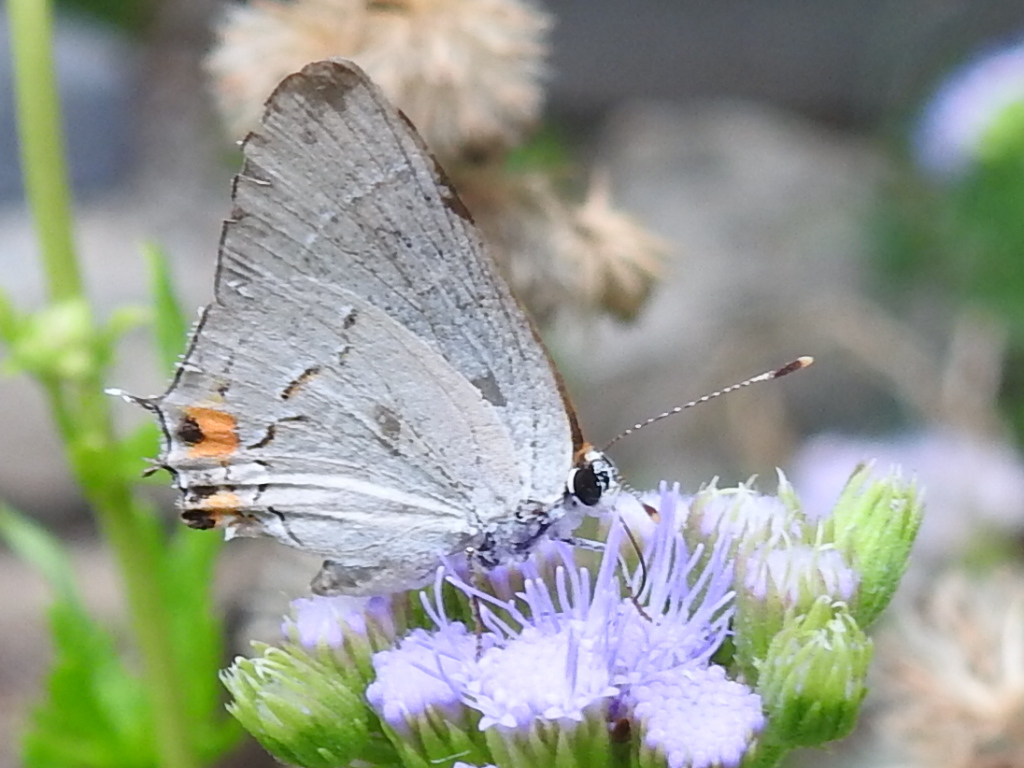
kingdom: Animalia
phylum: Arthropoda
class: Insecta
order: Lepidoptera
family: Lycaenidae
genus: Strymon
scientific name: Strymon melinus
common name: Gray hairstreak
